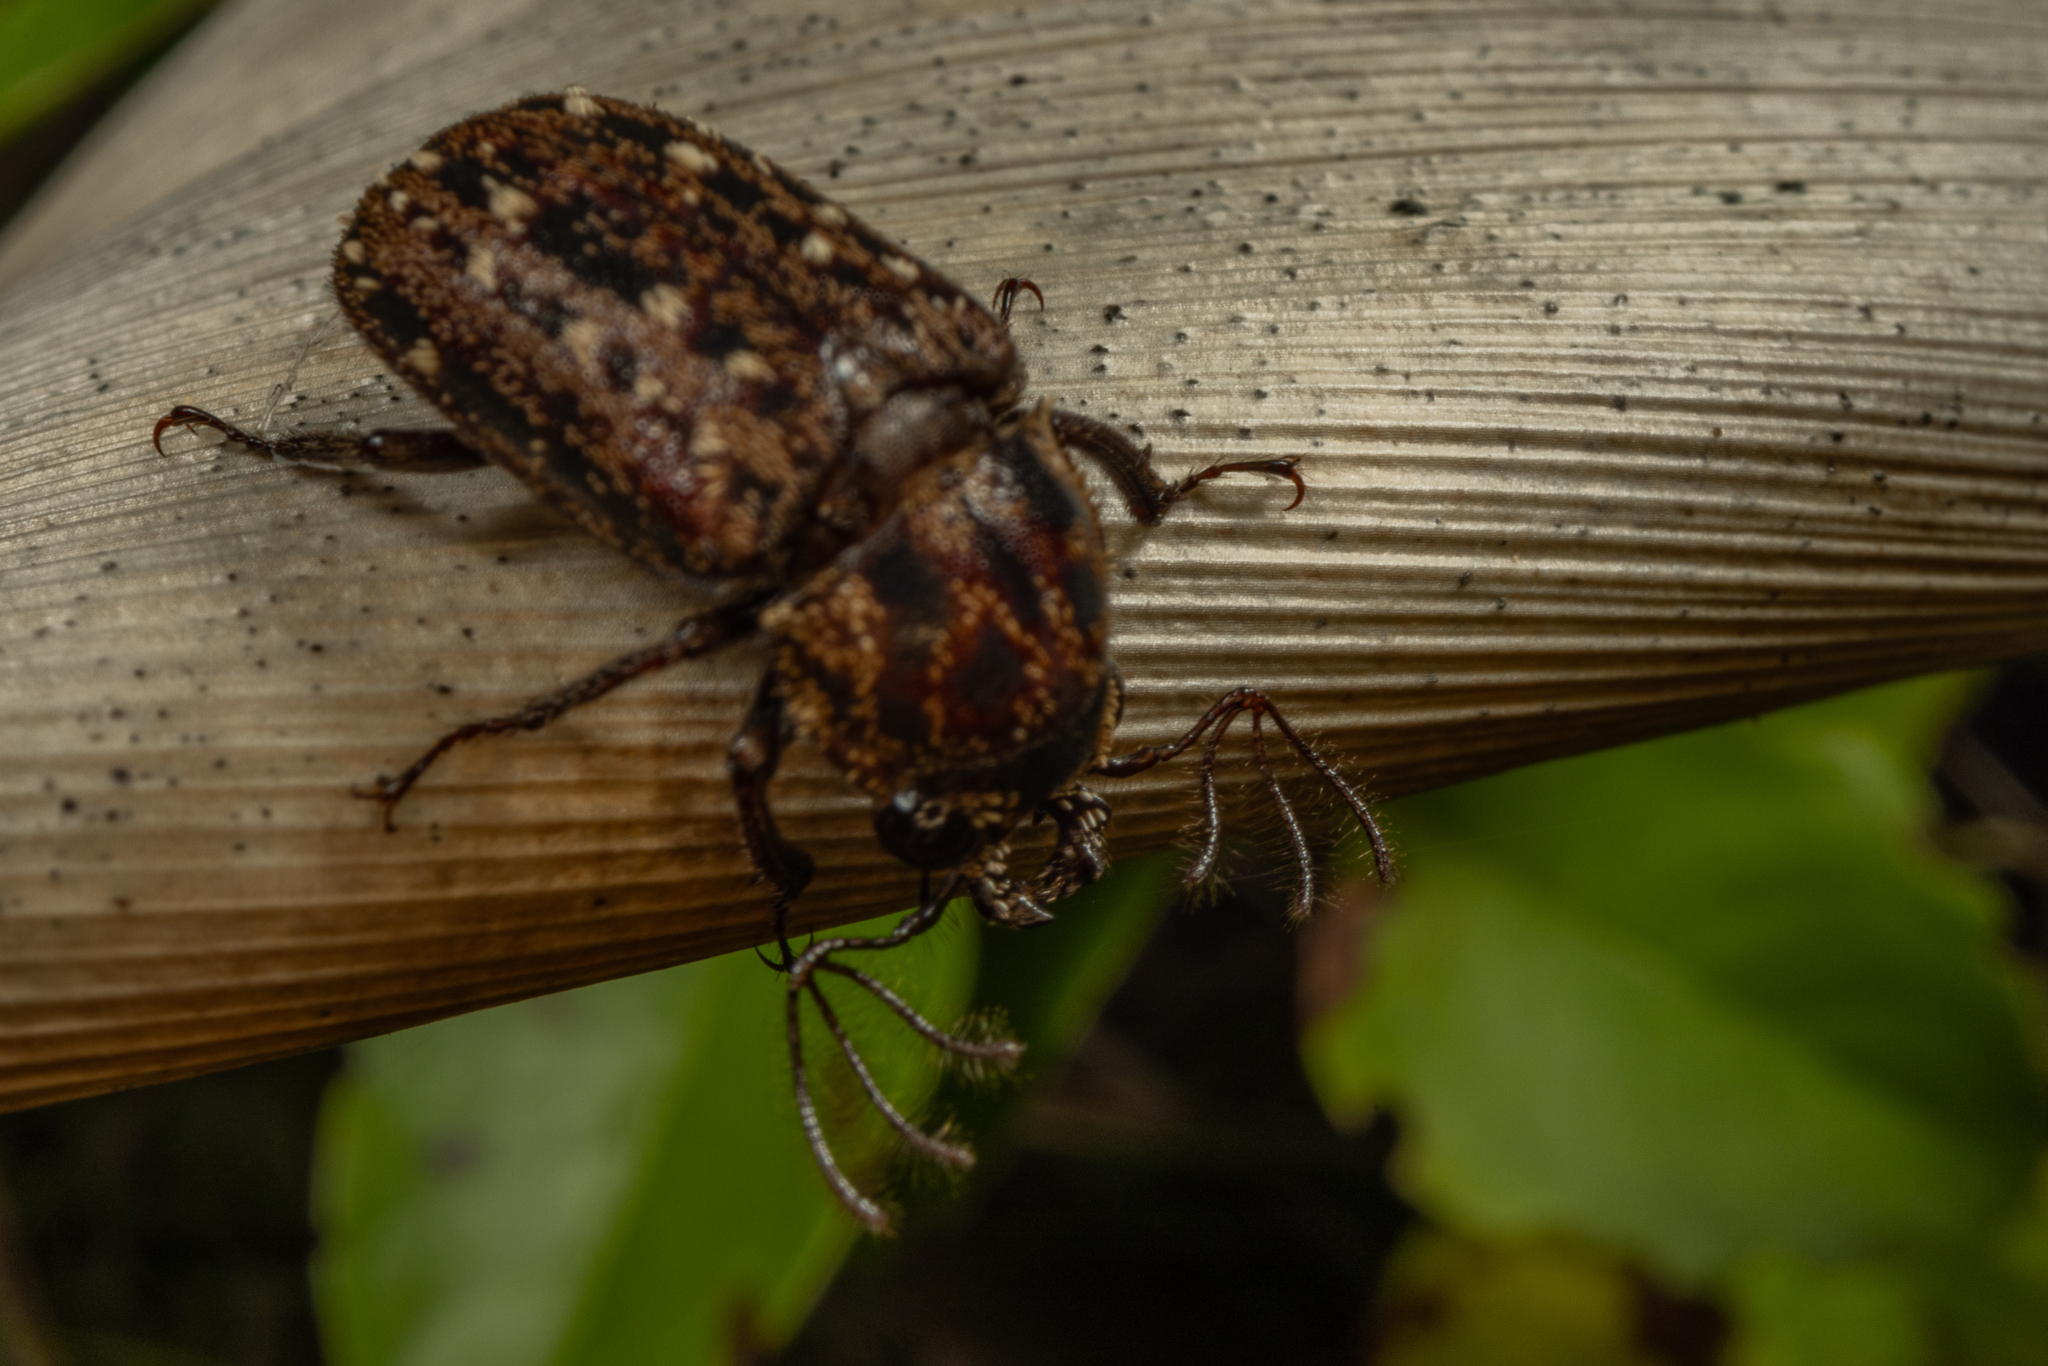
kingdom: Animalia
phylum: Arthropoda
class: Insecta
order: Coleoptera
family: Lucanidae
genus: Mitophyllus
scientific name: Mitophyllus arcuatus
